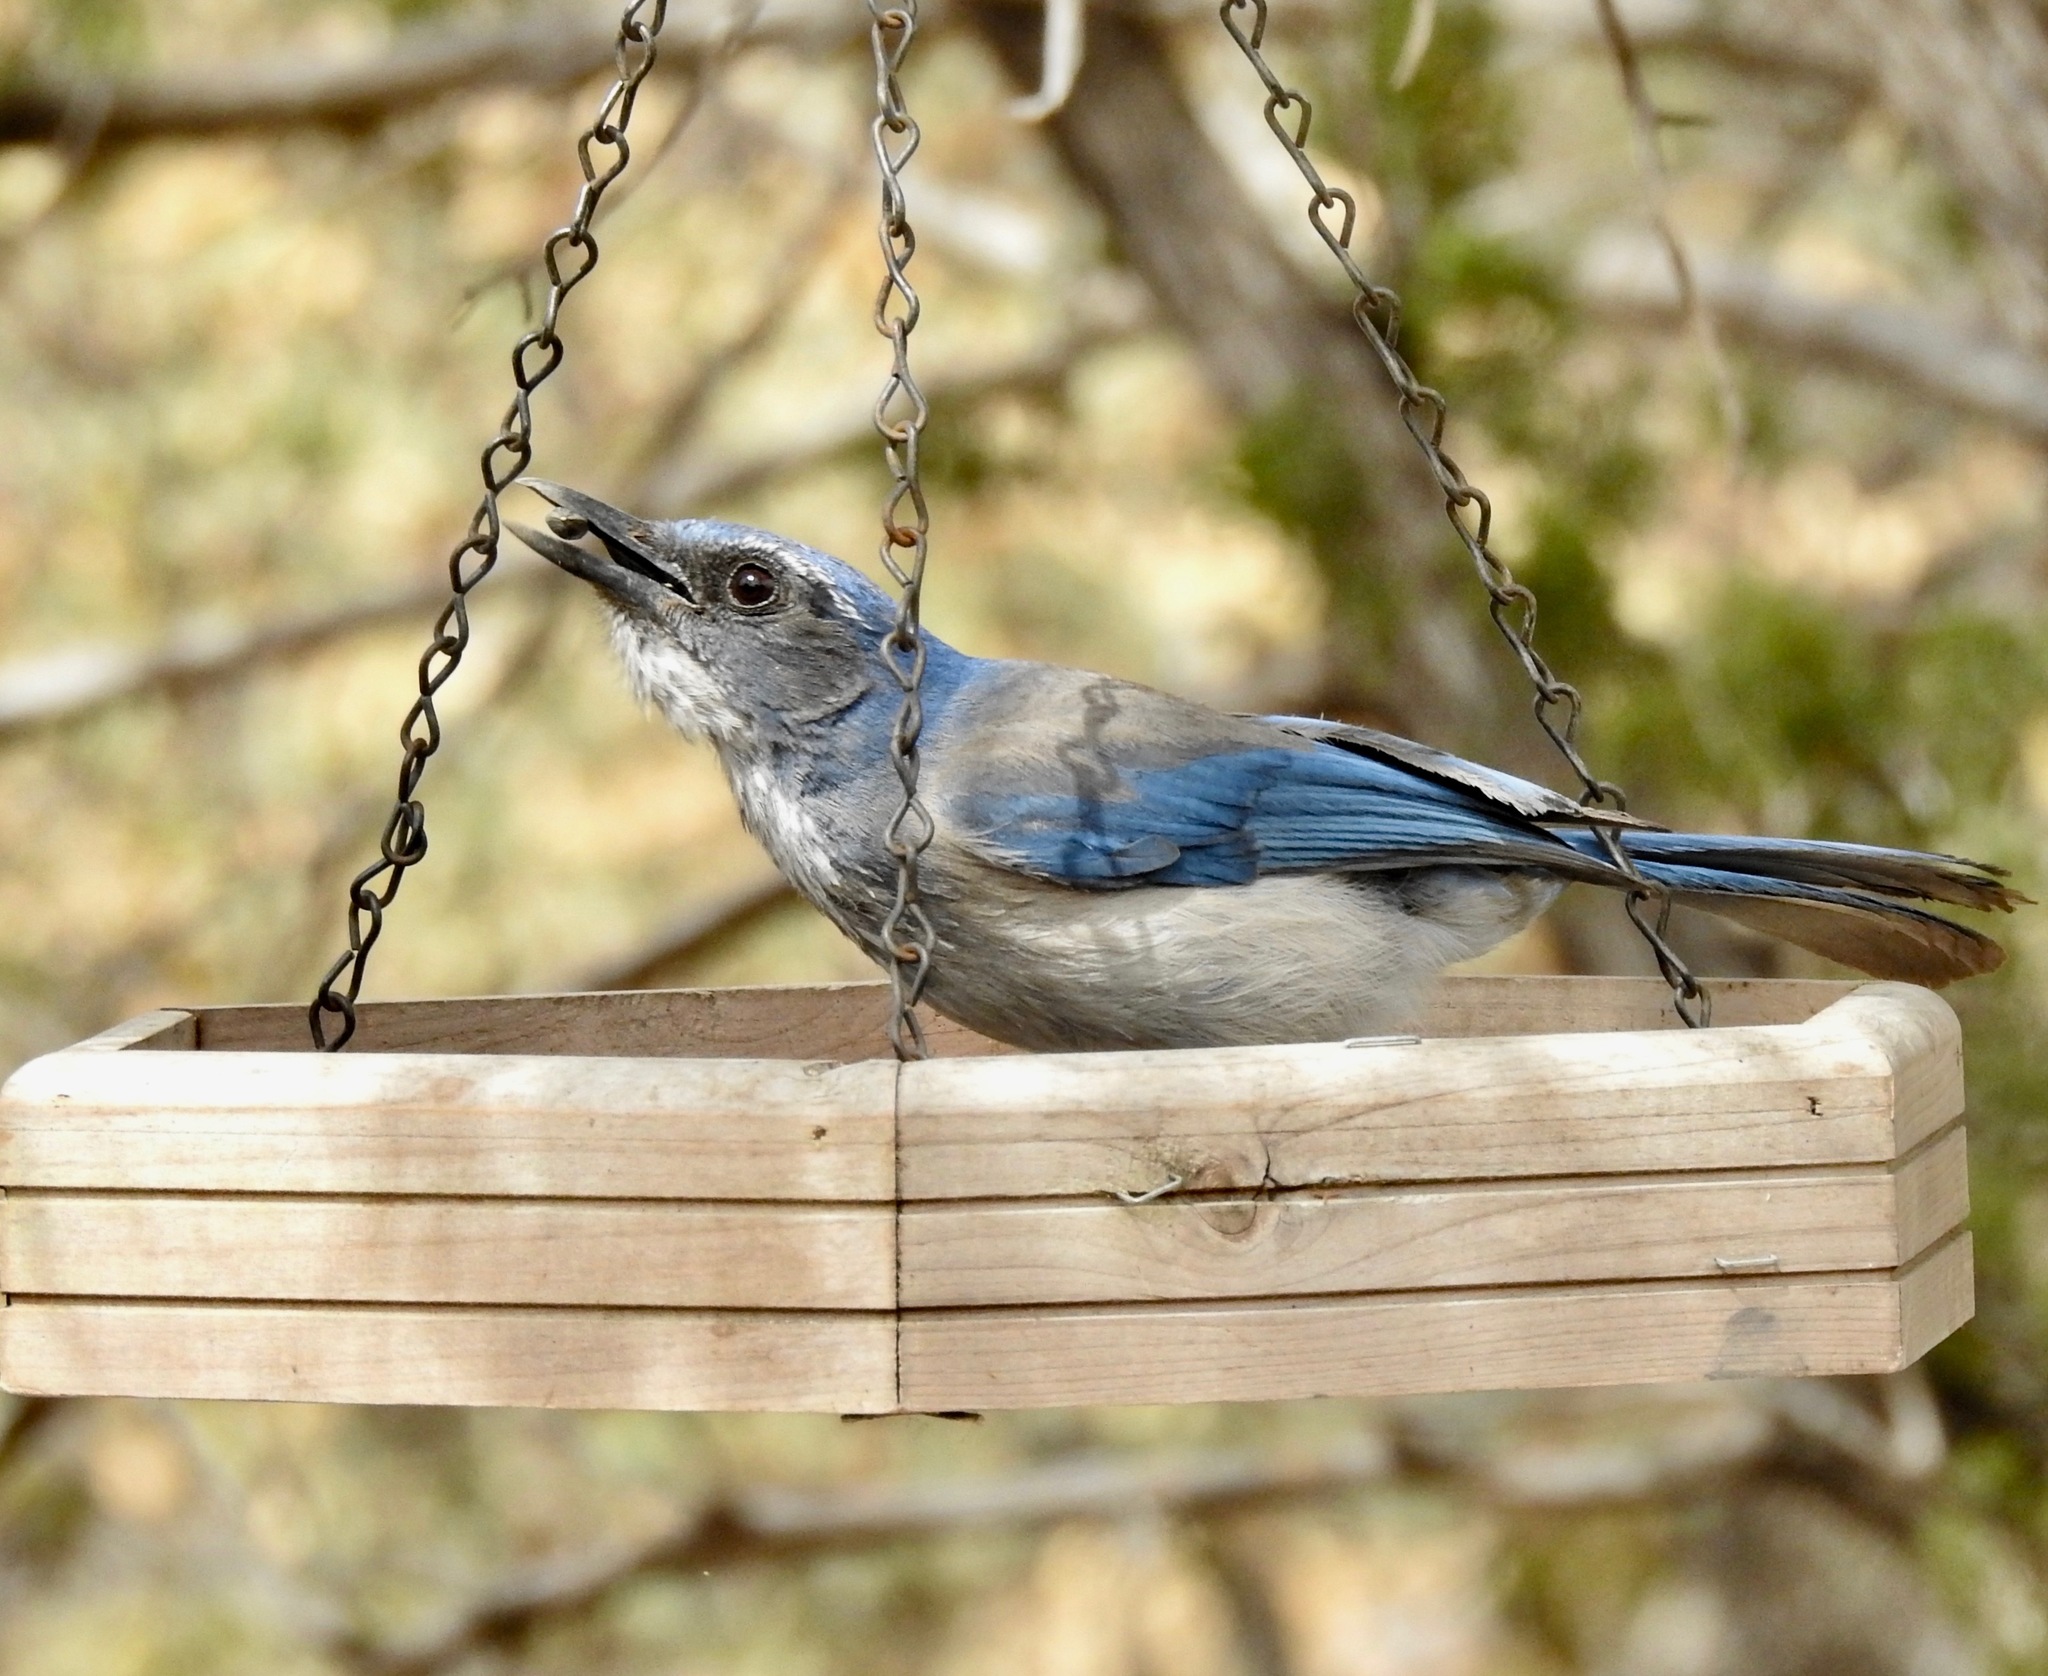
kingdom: Animalia
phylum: Chordata
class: Aves
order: Passeriformes
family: Corvidae
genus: Aphelocoma
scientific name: Aphelocoma woodhouseii
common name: Woodhouse's scrub-jay
